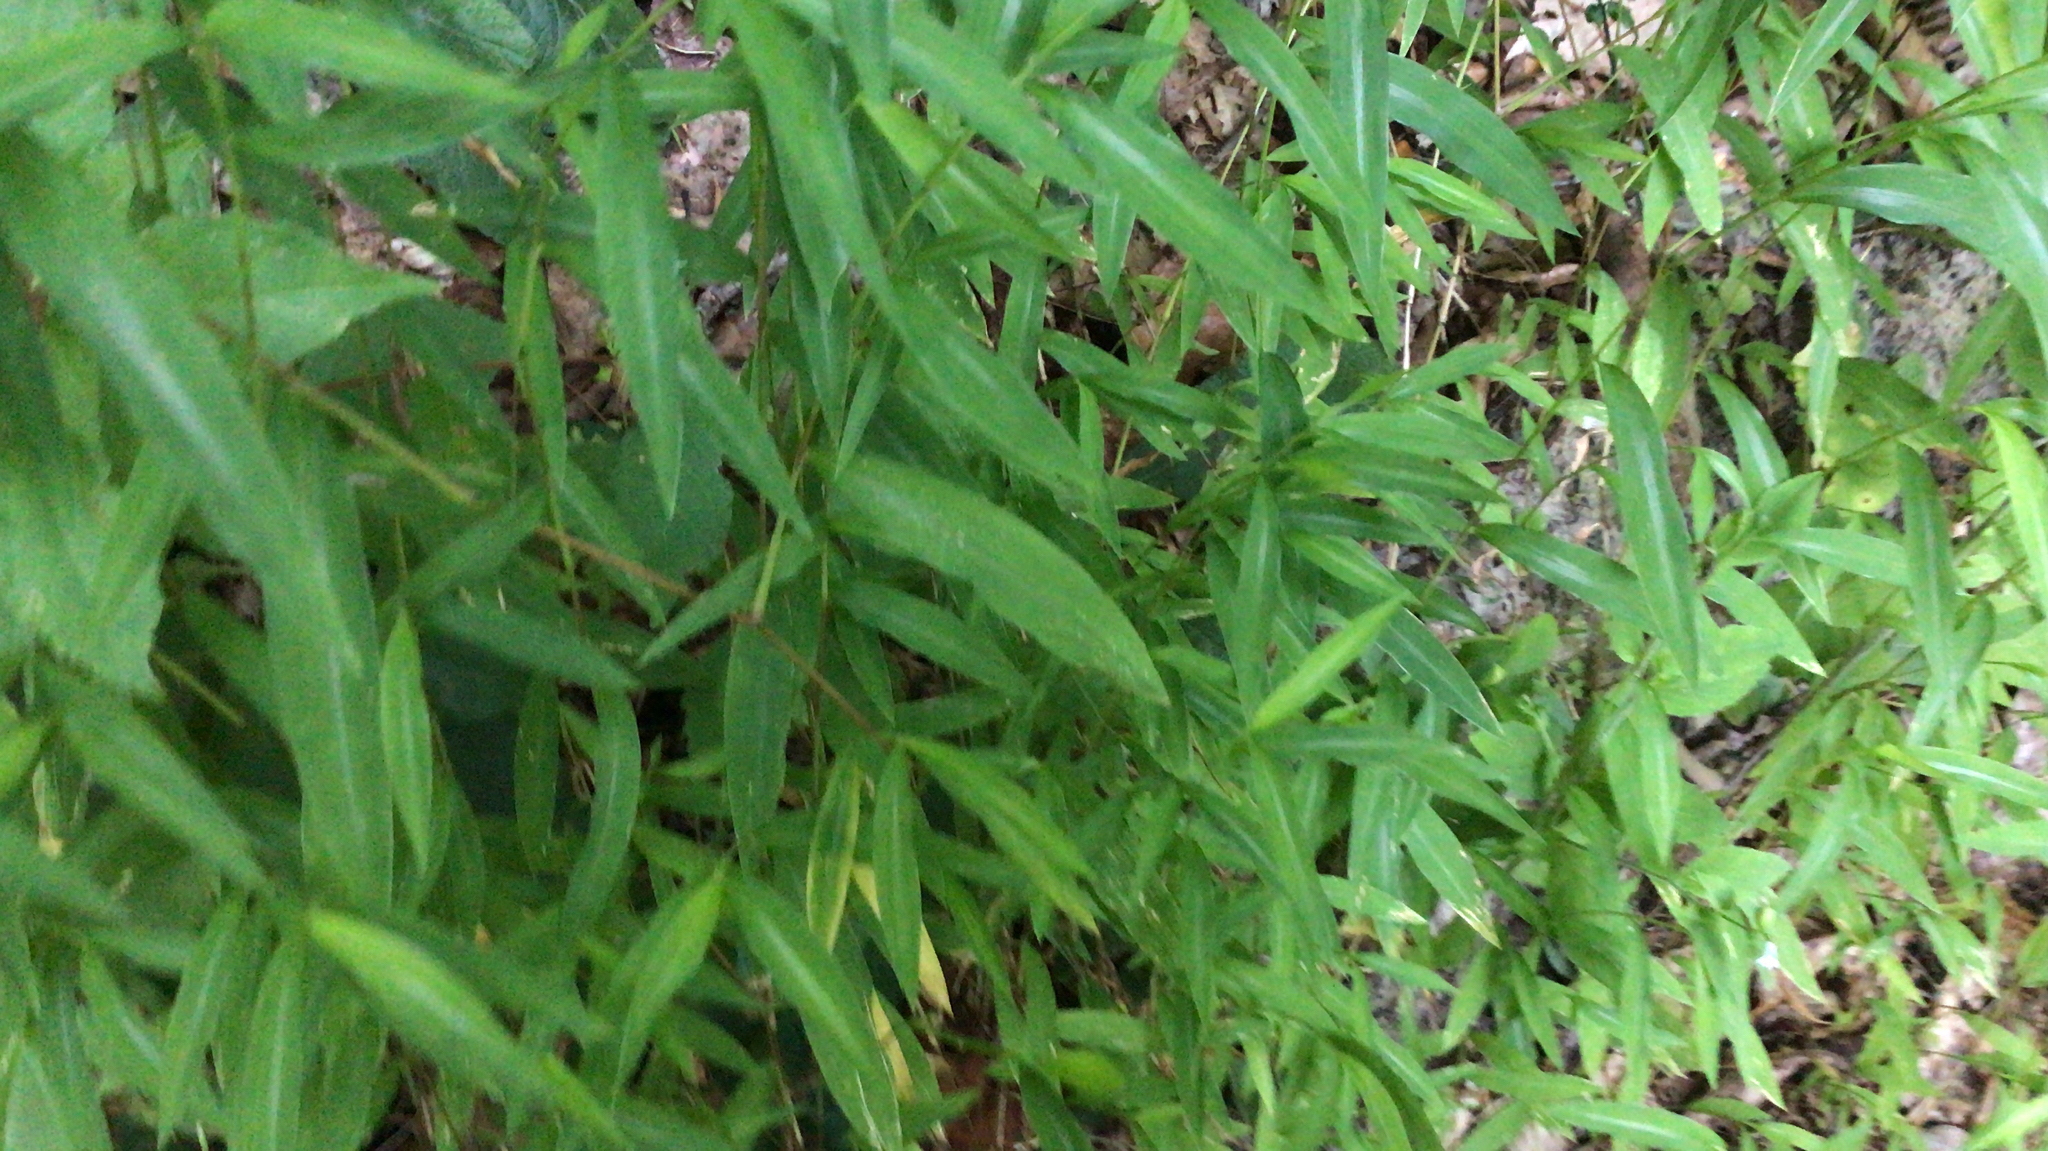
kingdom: Plantae
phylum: Tracheophyta
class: Liliopsida
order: Poales
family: Poaceae
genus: Microstegium
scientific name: Microstegium vimineum
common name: Japanese stiltgrass
